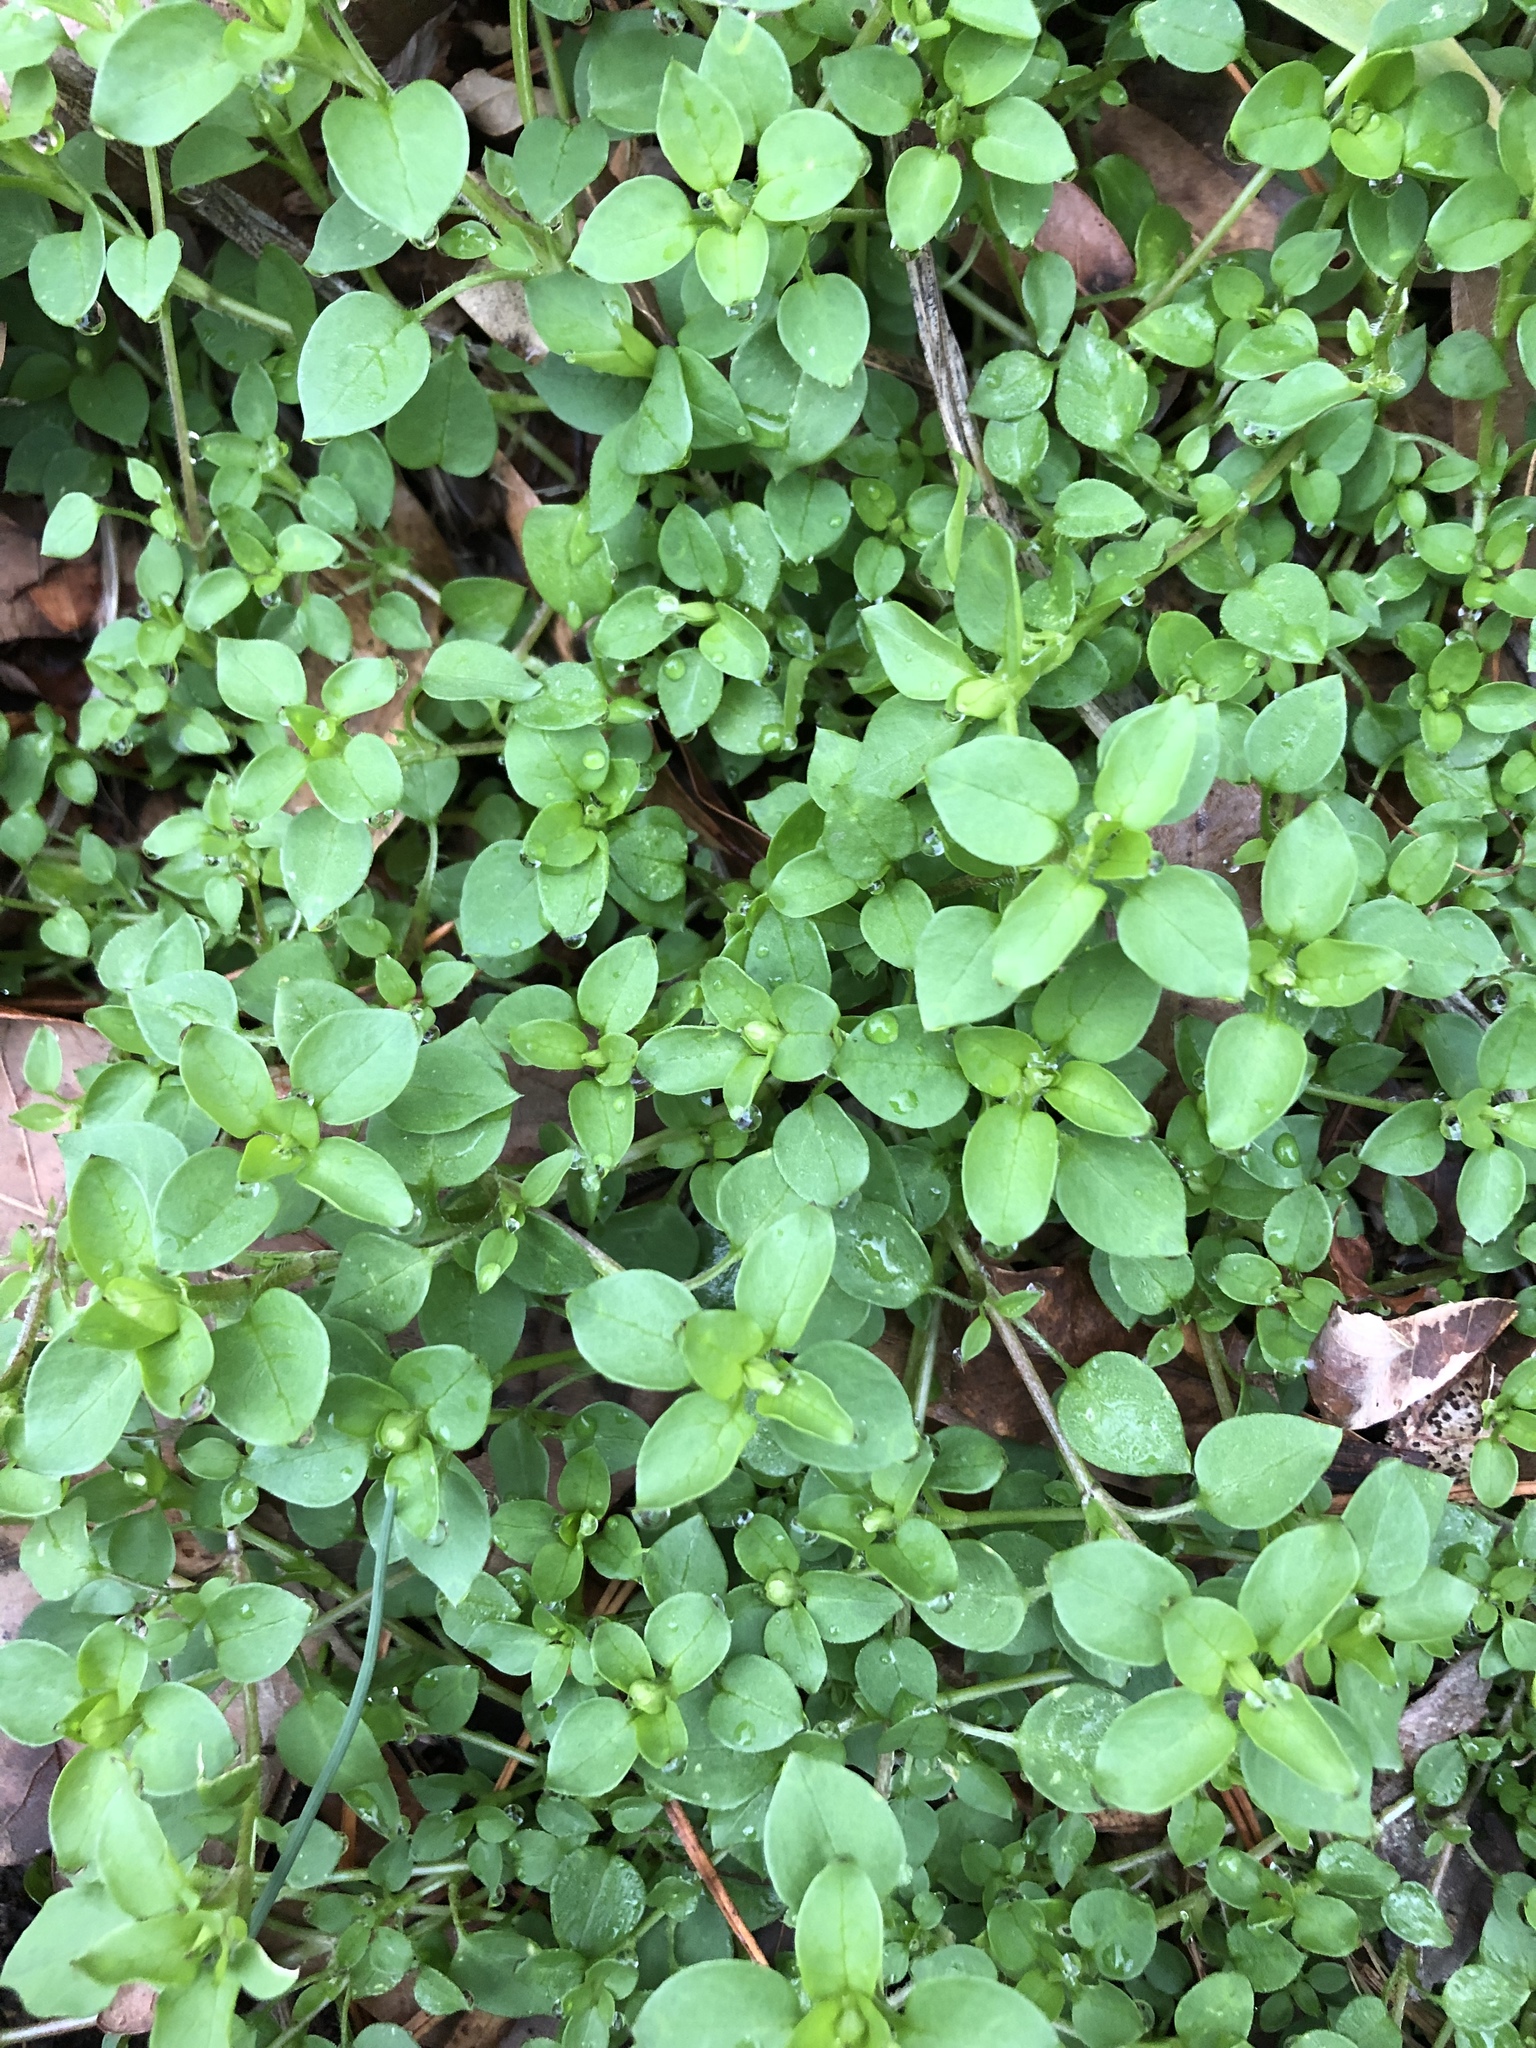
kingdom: Plantae
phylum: Tracheophyta
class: Magnoliopsida
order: Caryophyllales
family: Caryophyllaceae
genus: Stellaria
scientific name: Stellaria media
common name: Common chickweed
